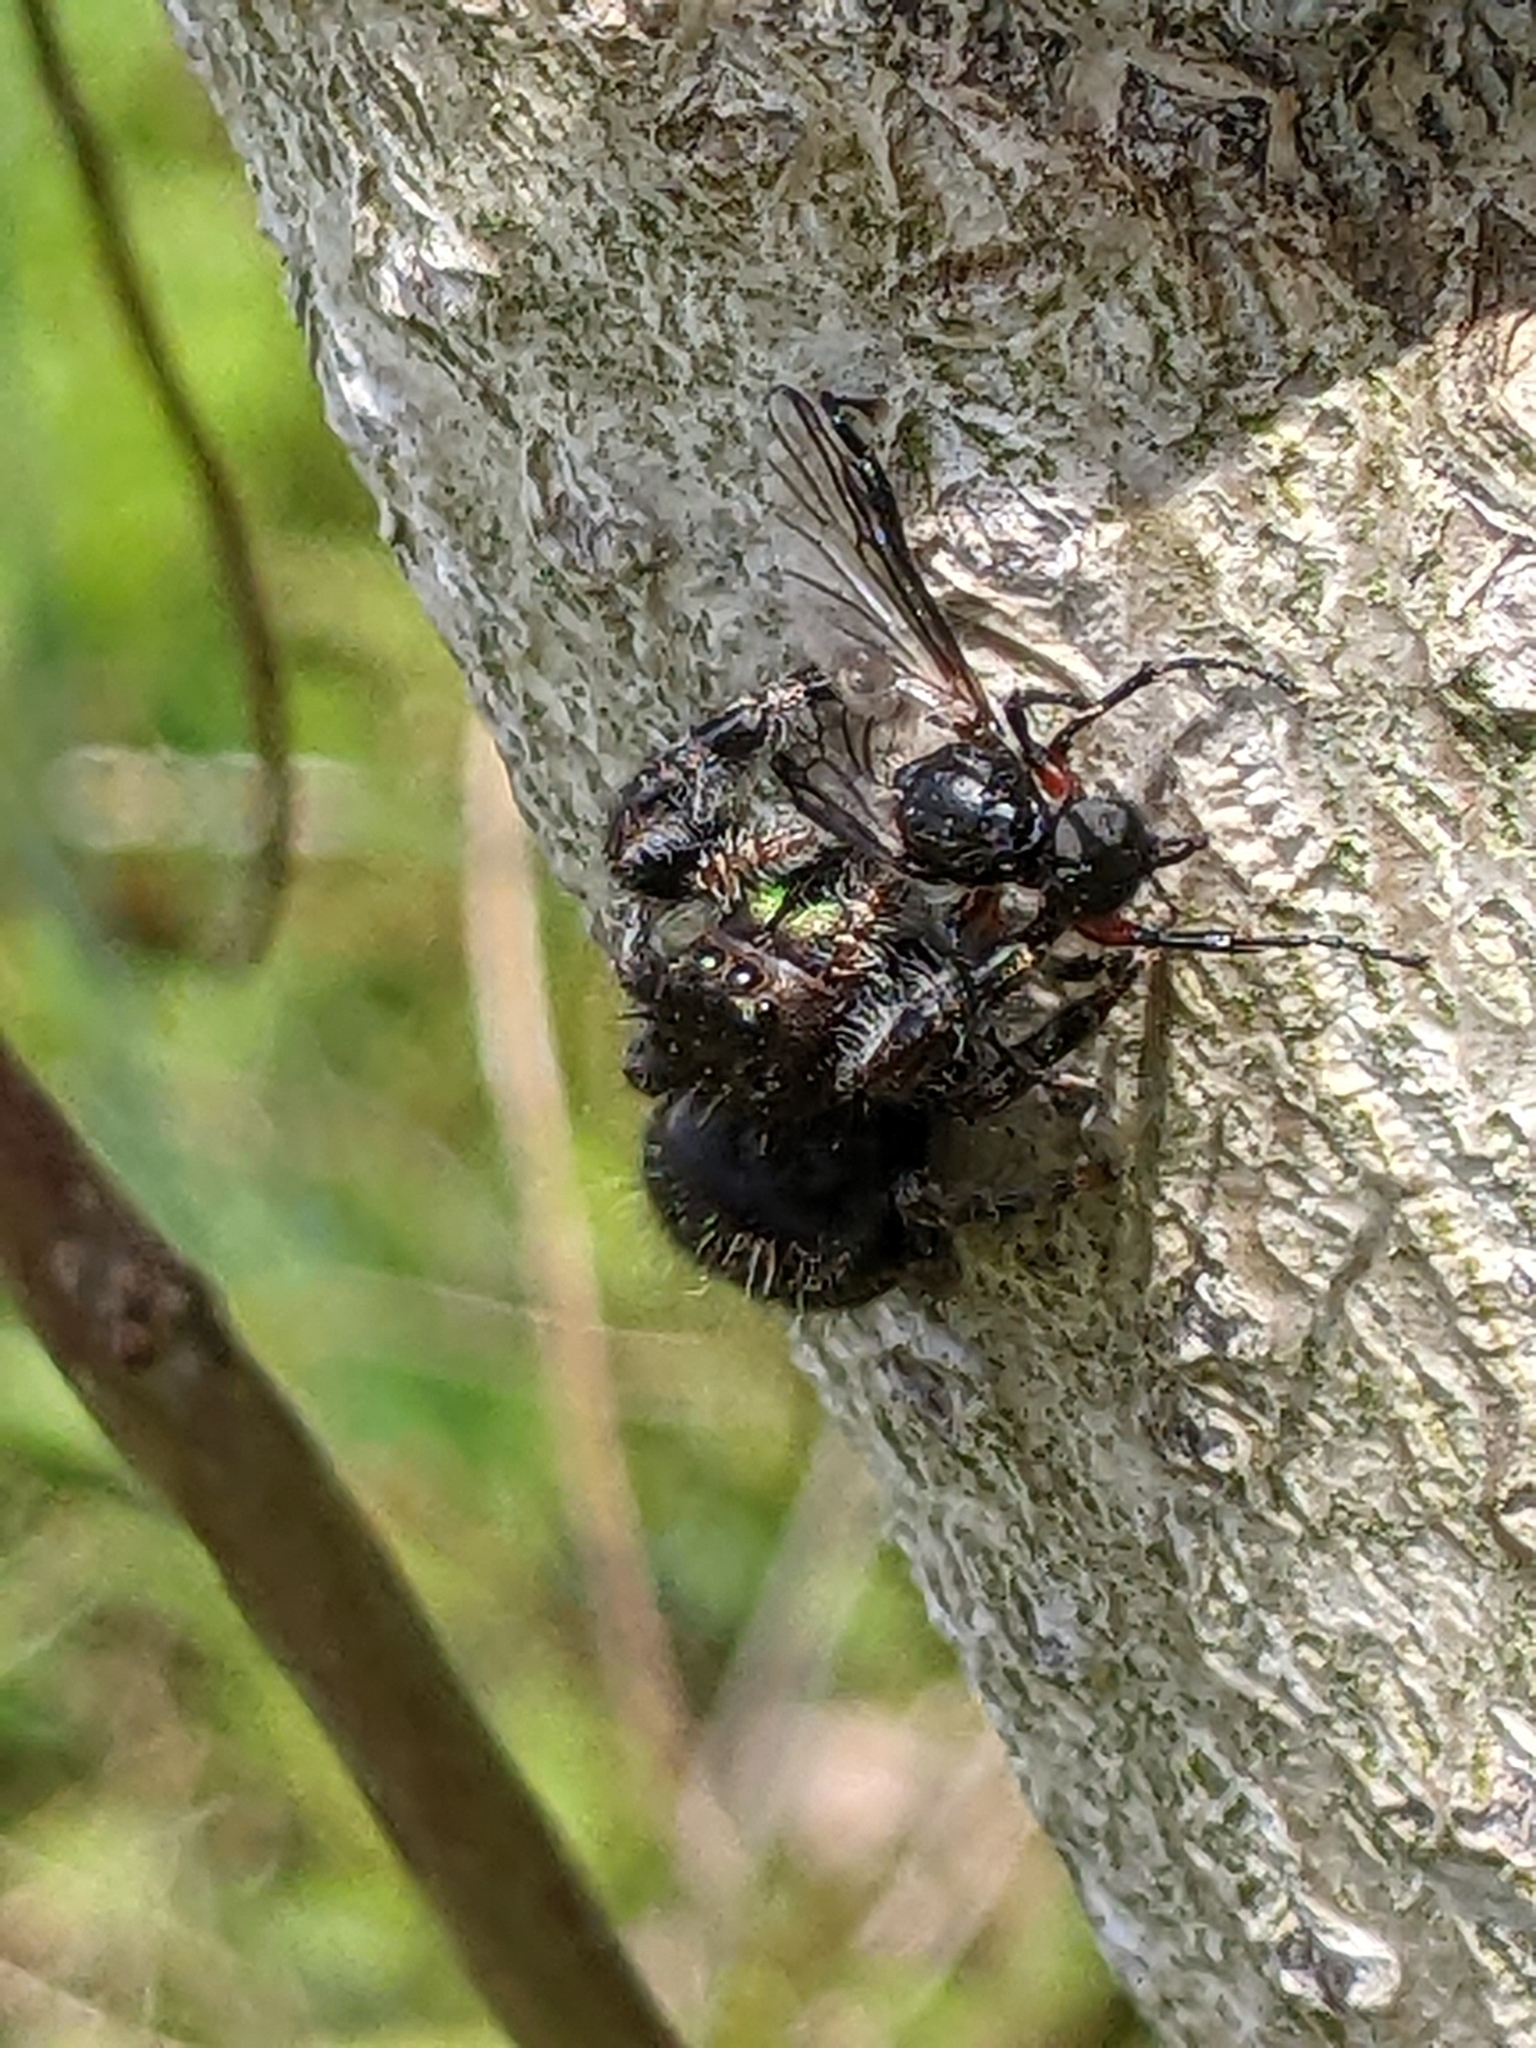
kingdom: Animalia
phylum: Arthropoda
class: Arachnida
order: Araneae
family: Salticidae
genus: Phidippus
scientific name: Phidippus audax
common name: Bold jumper
